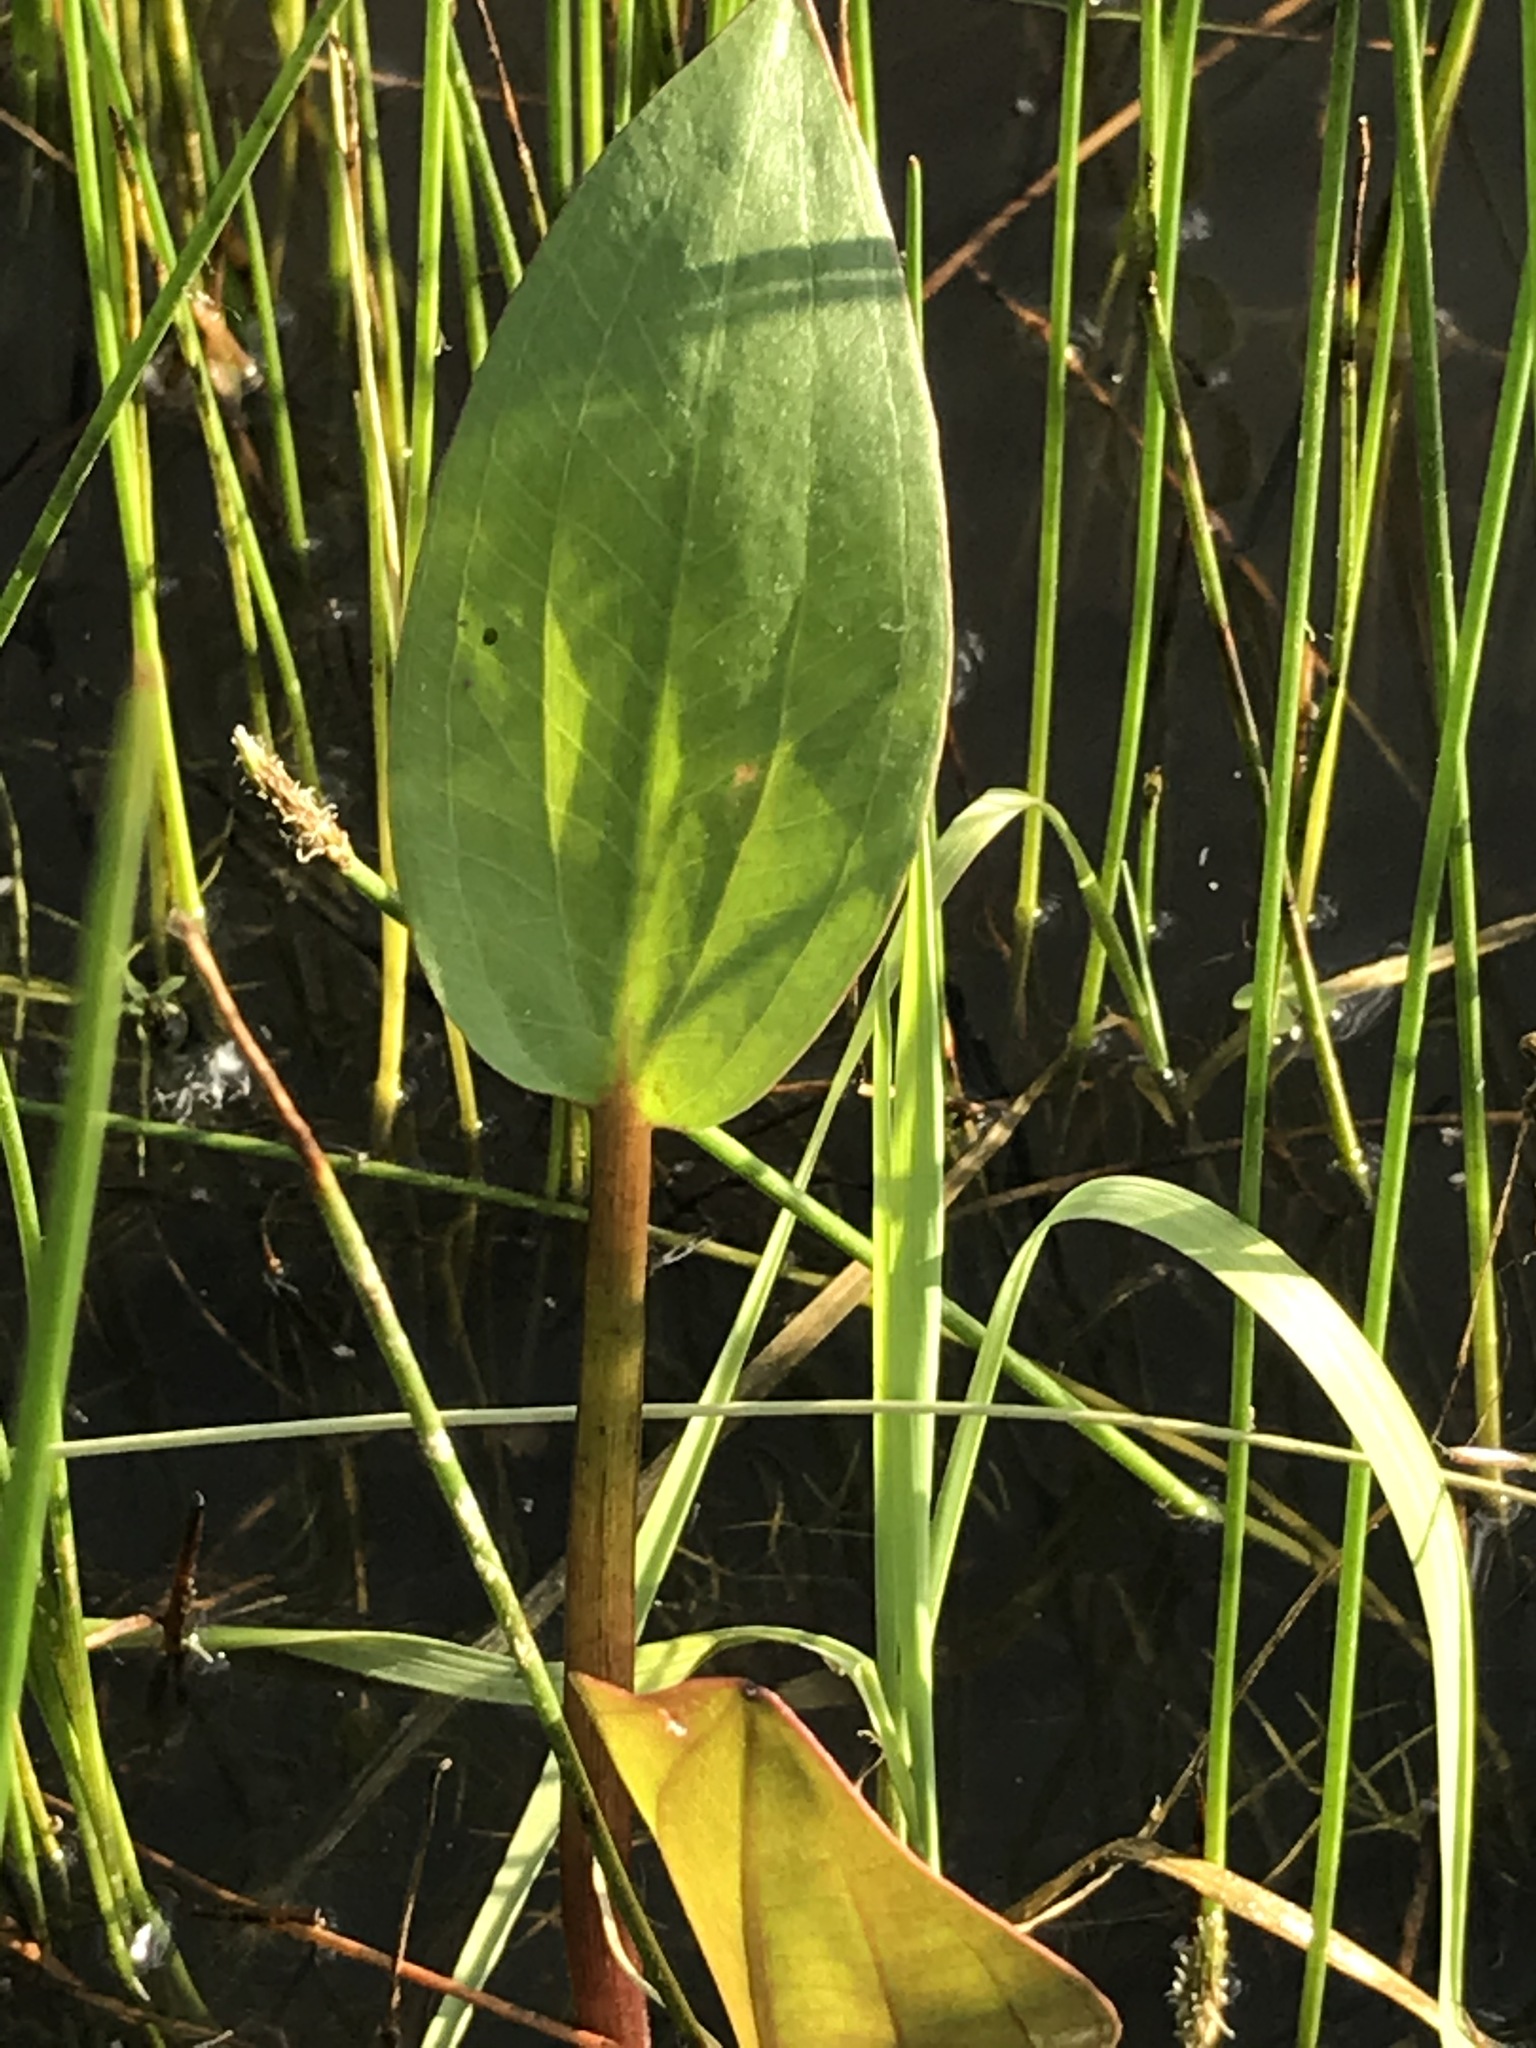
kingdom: Plantae
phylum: Tracheophyta
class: Liliopsida
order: Alismatales
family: Alismataceae
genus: Alisma
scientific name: Alisma
